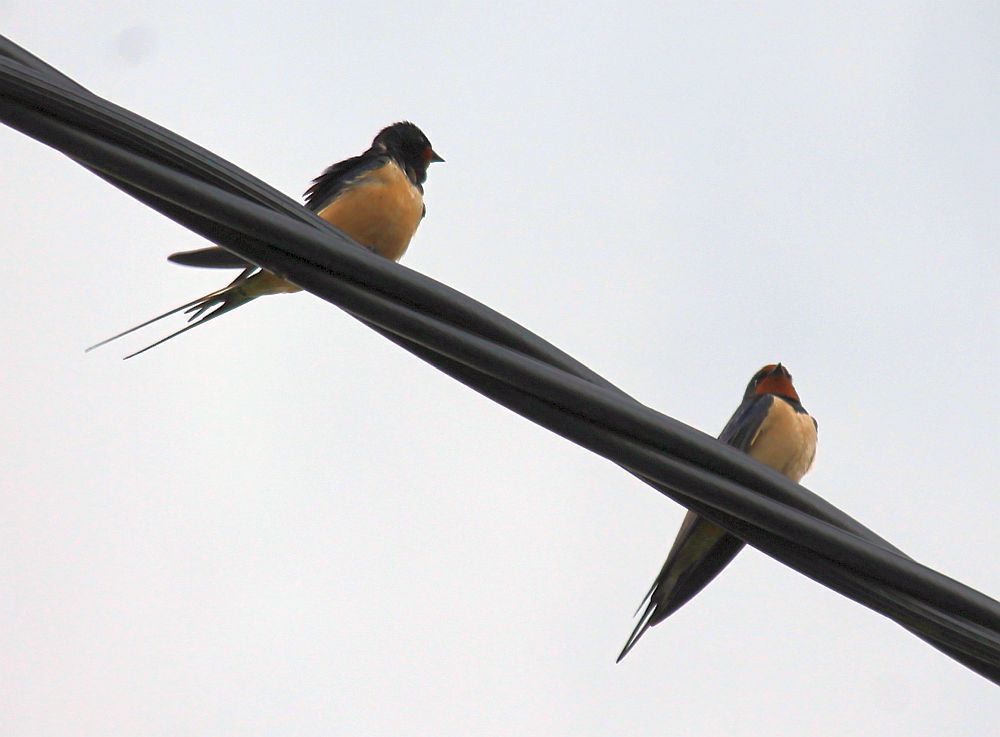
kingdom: Animalia
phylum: Chordata
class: Aves
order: Passeriformes
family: Hirundinidae
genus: Hirundo
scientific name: Hirundo rustica
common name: Barn swallow
